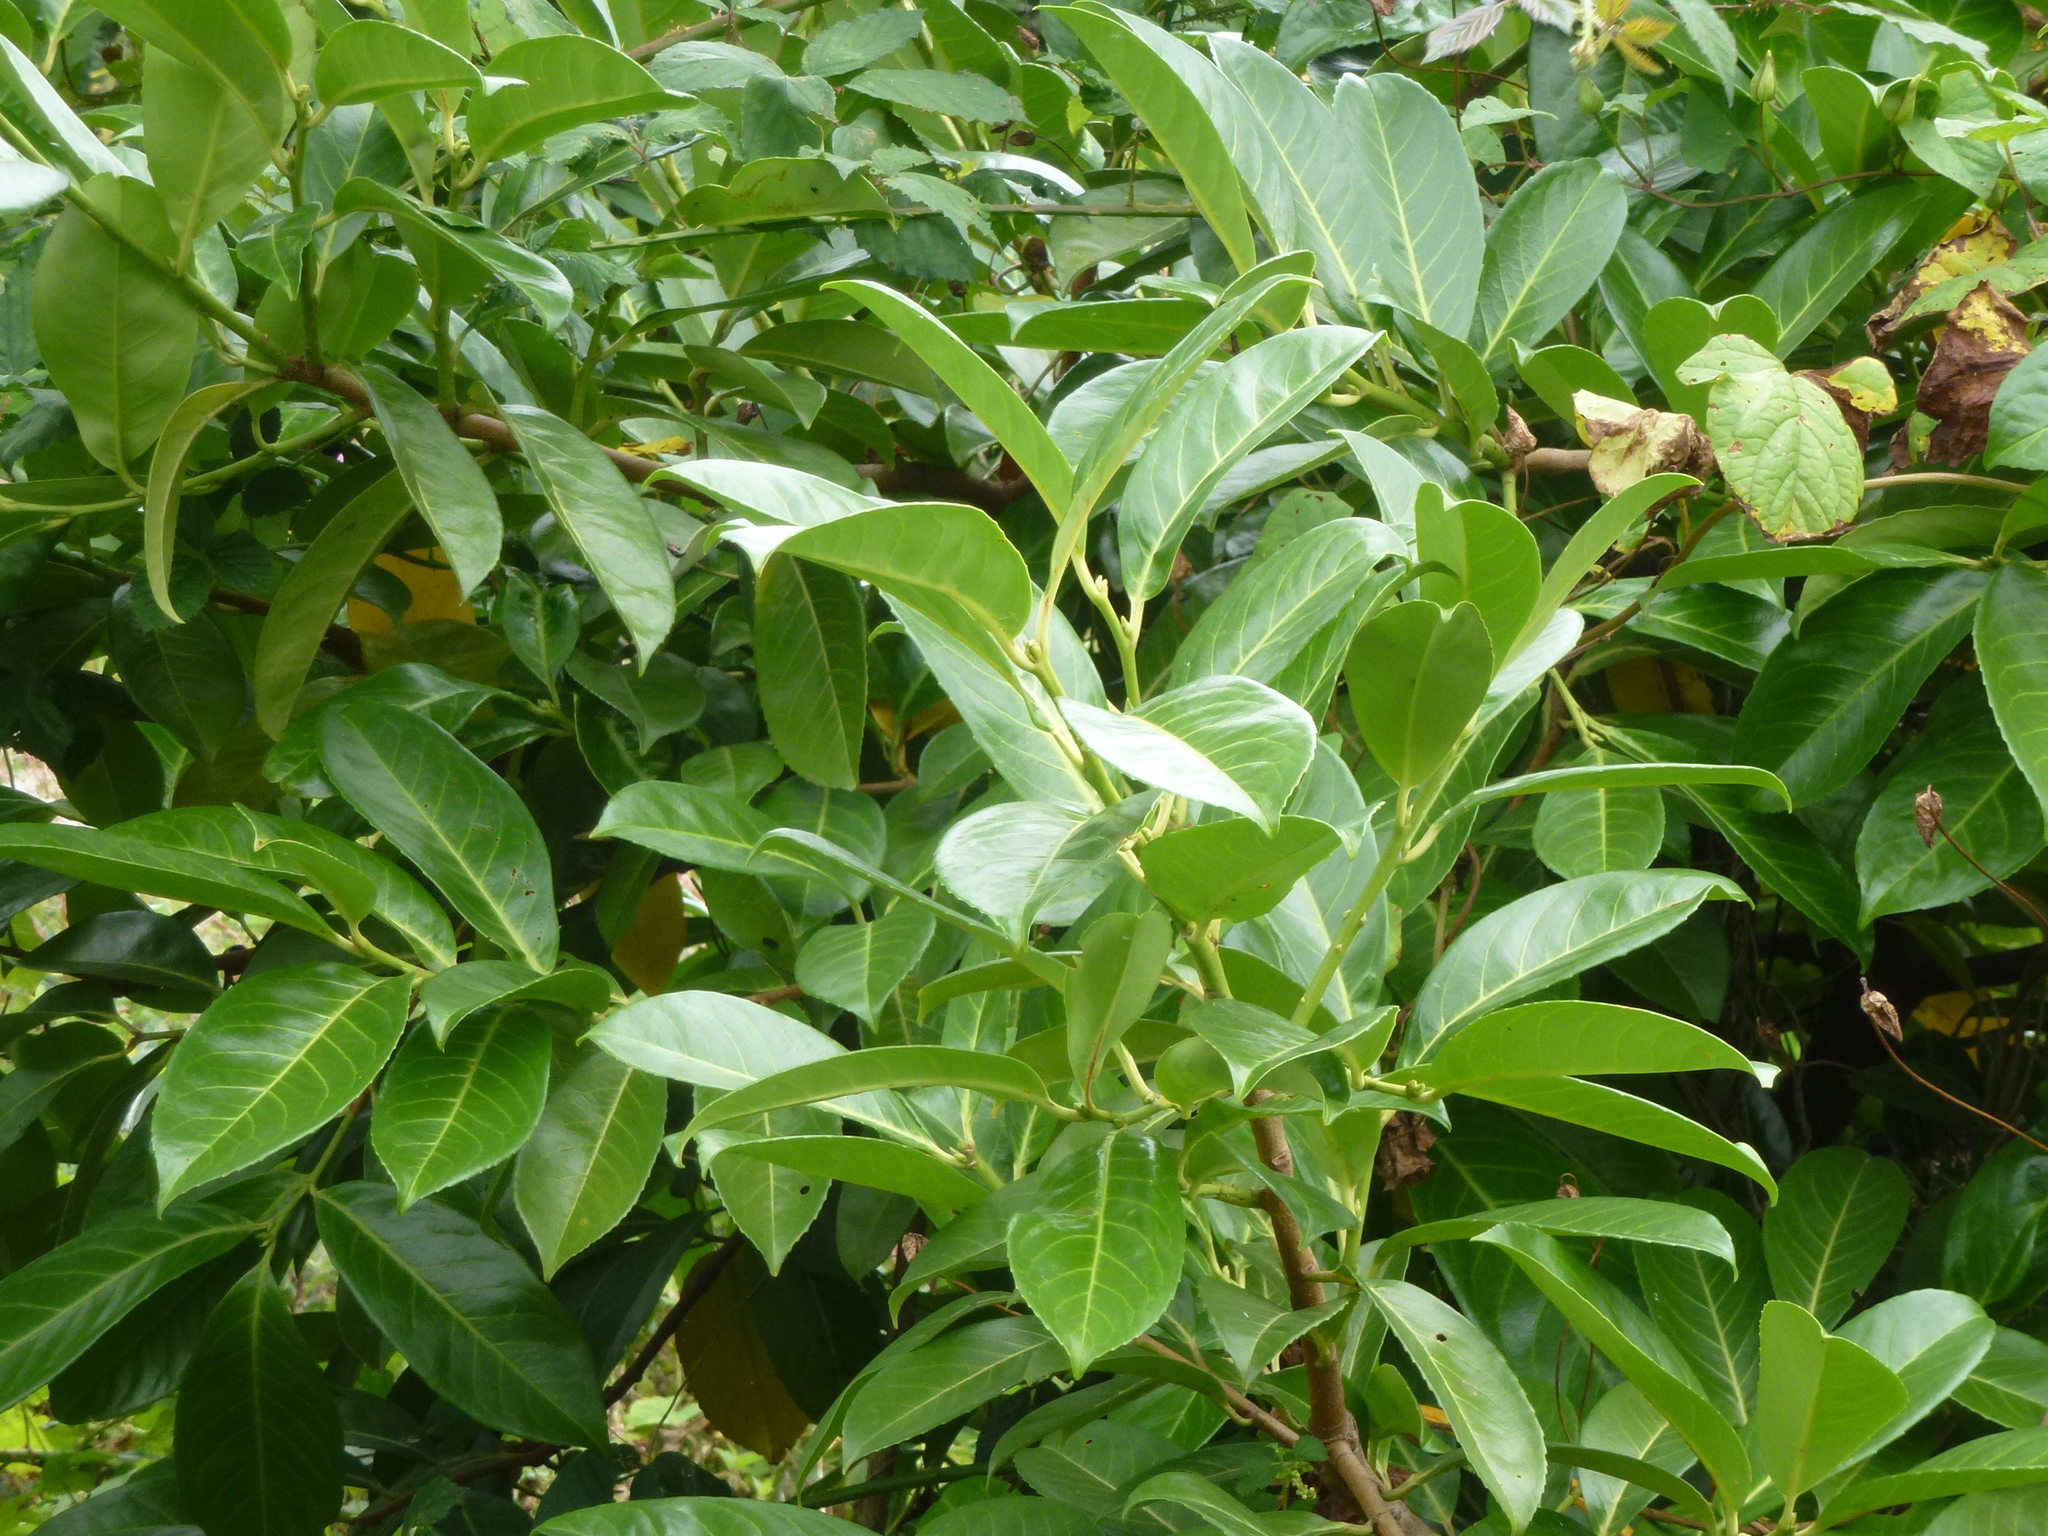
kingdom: Plantae
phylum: Tracheophyta
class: Magnoliopsida
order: Rosales
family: Rosaceae
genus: Prunus
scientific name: Prunus laurocerasus
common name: Cherry laurel
